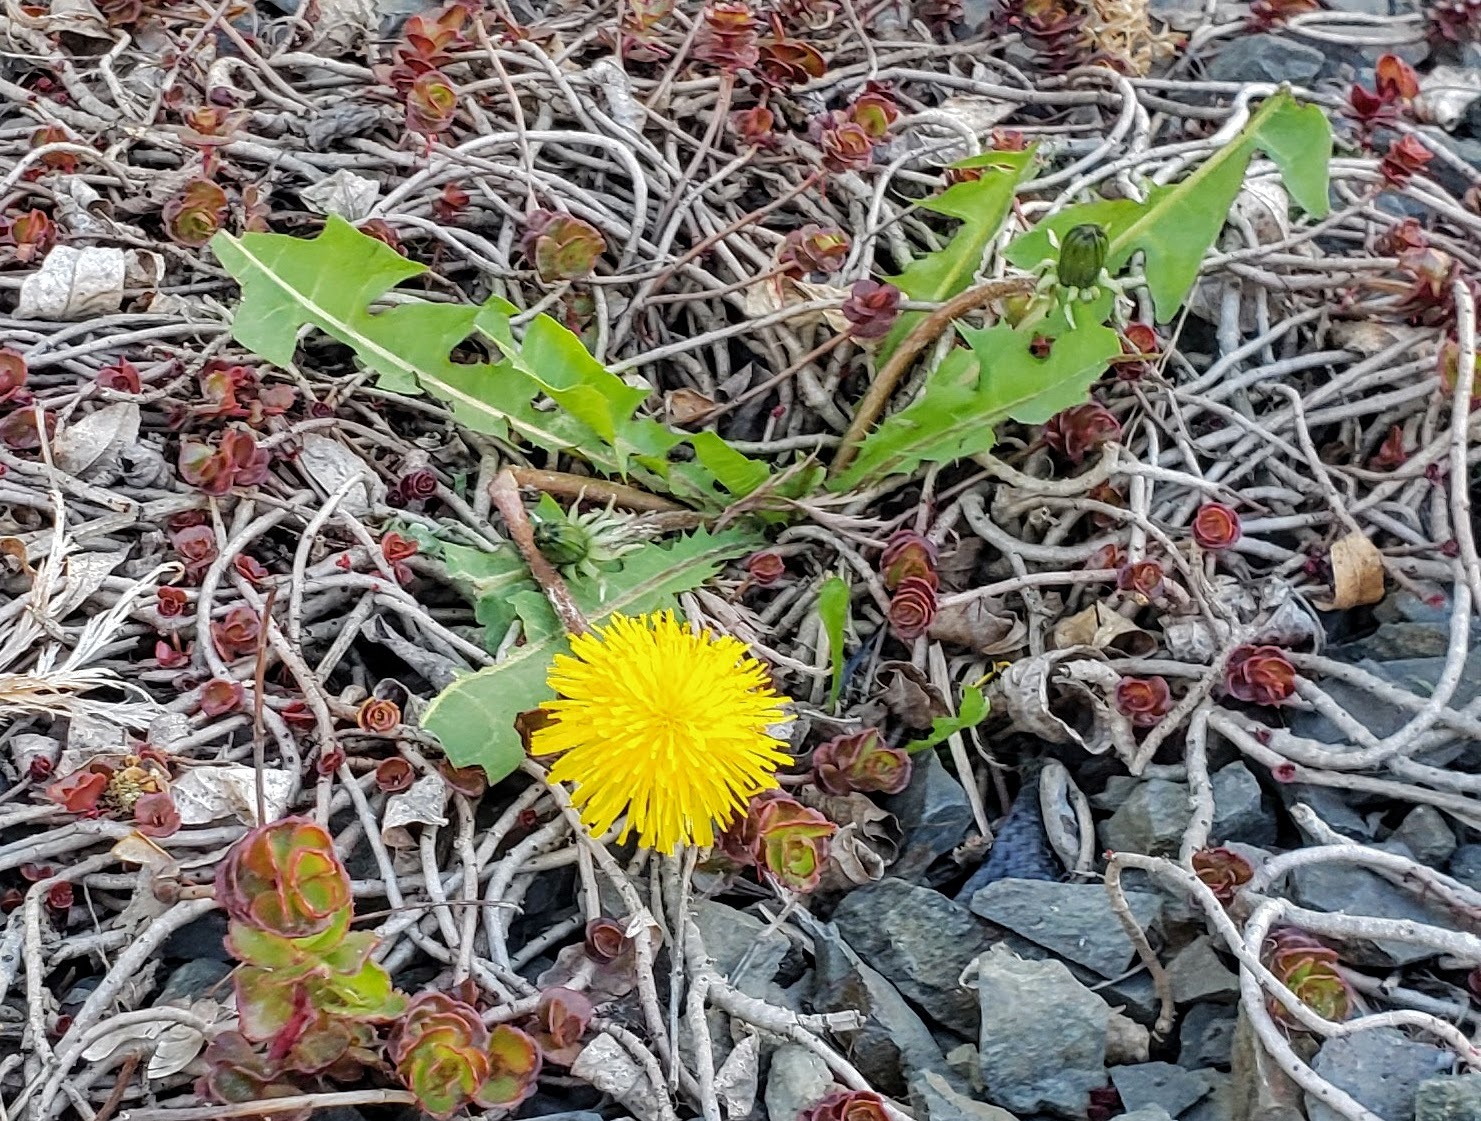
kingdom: Plantae
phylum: Tracheophyta
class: Magnoliopsida
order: Asterales
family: Asteraceae
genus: Taraxacum
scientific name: Taraxacum officinale
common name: Common dandelion
